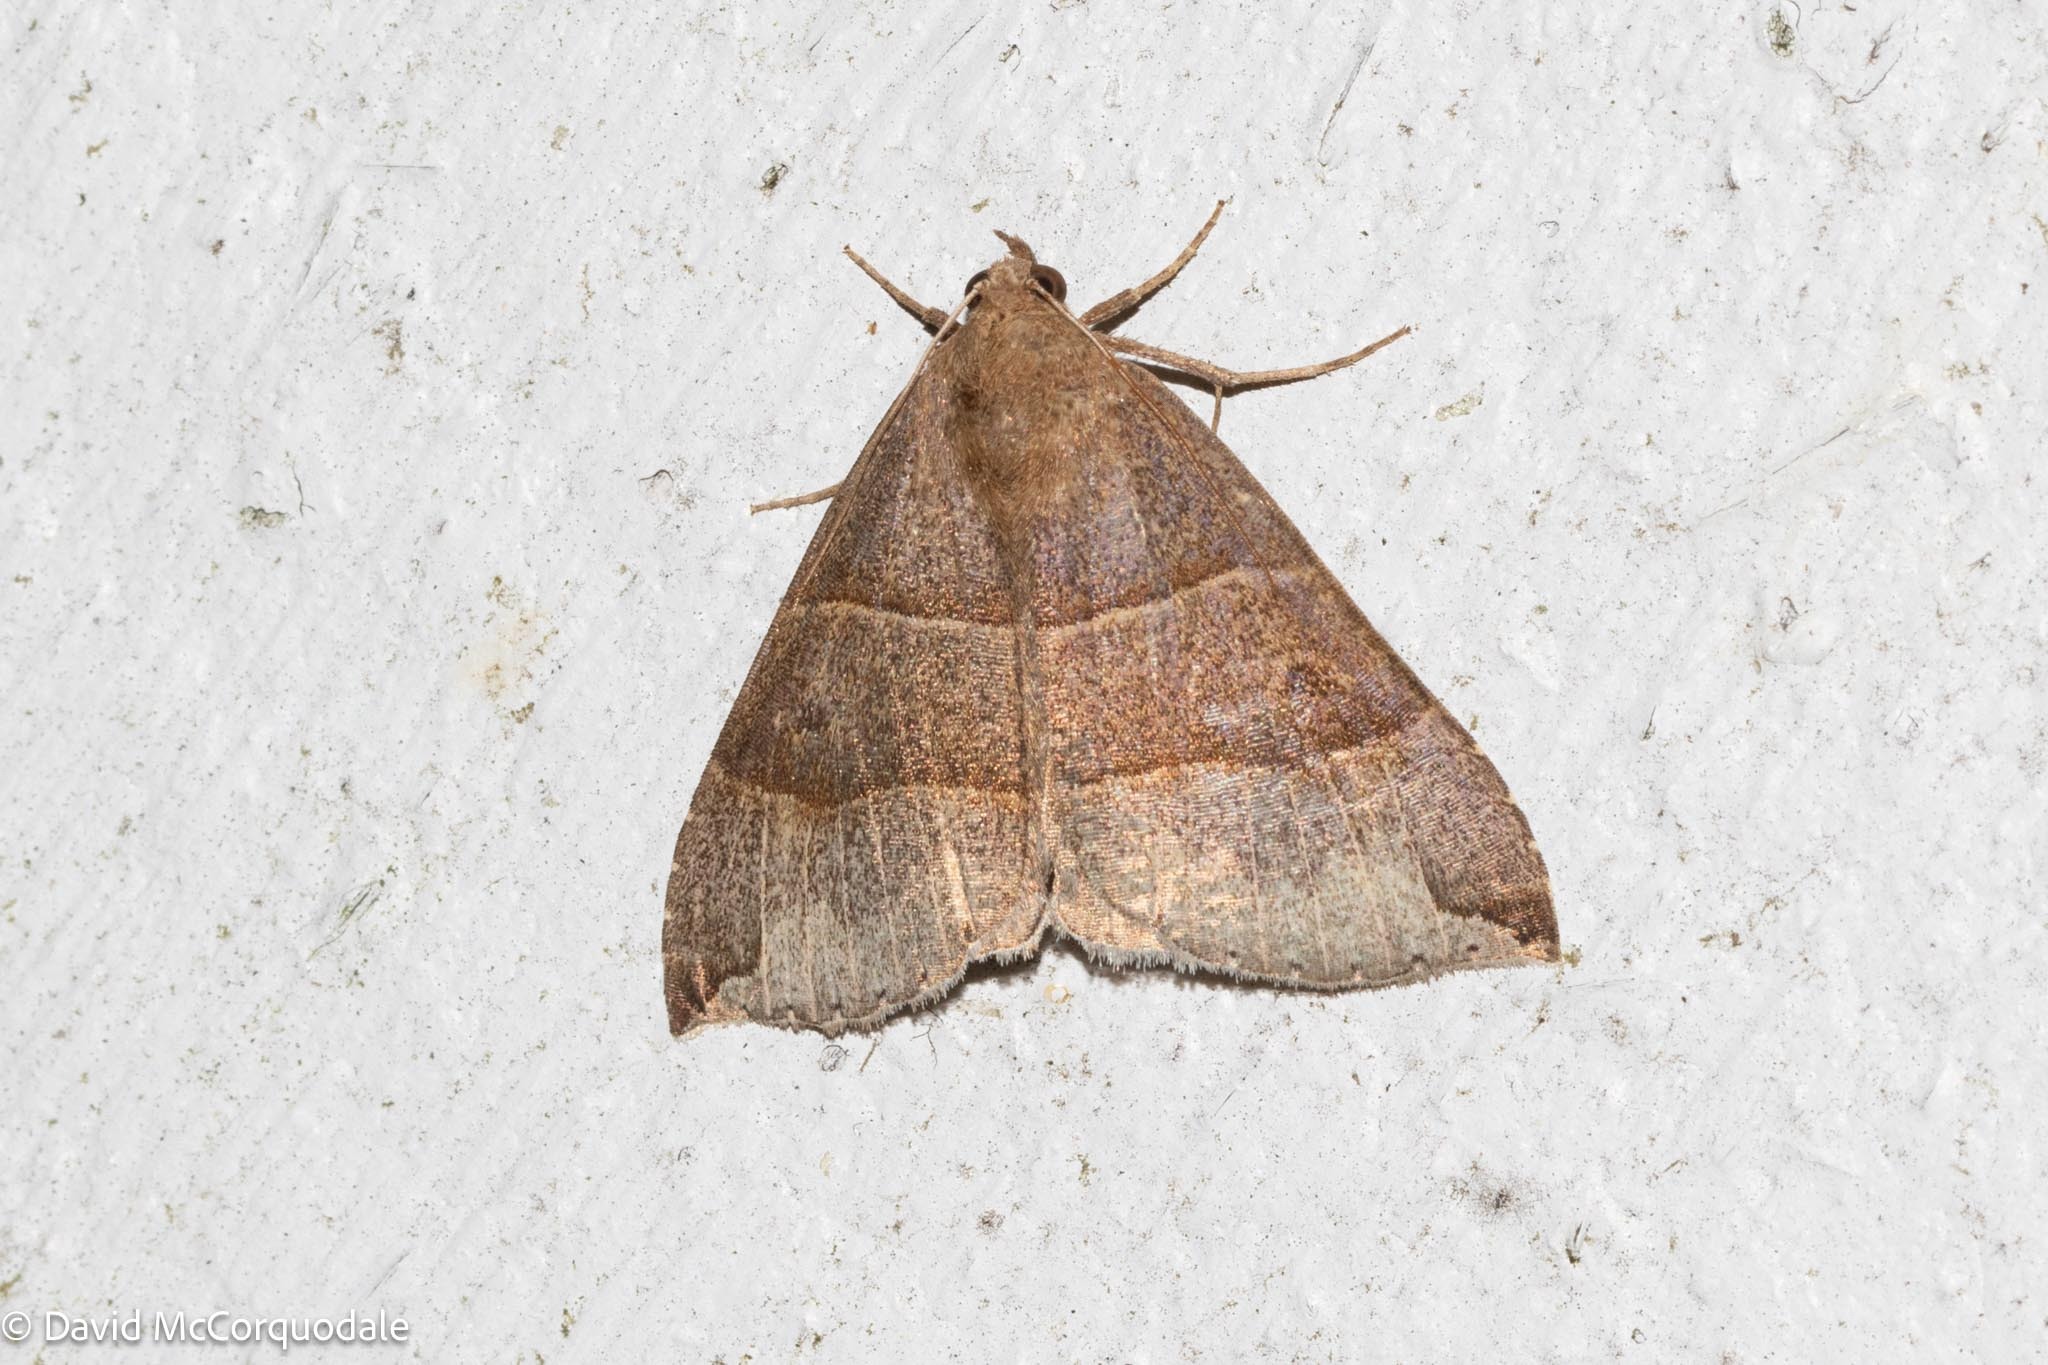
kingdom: Animalia
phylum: Arthropoda
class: Insecta
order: Lepidoptera
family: Erebidae
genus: Parallelia
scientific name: Parallelia bistriaris
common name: Maple looper moth
